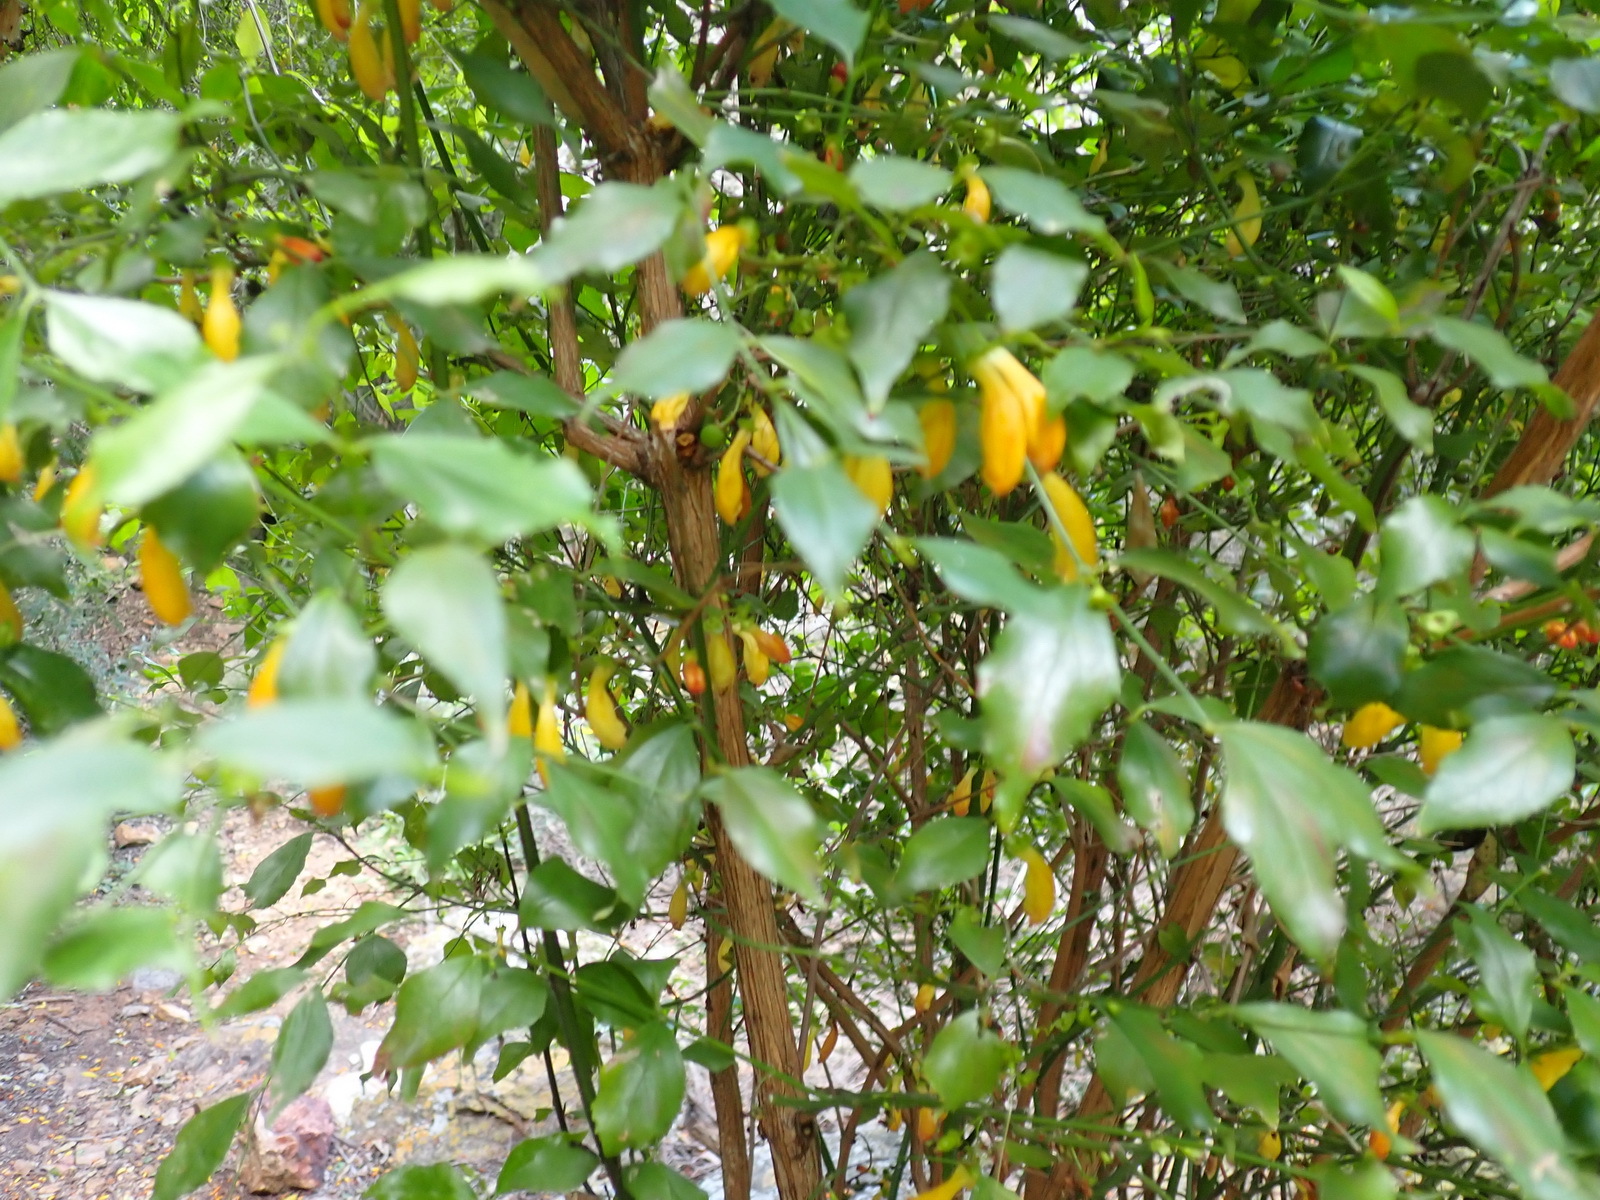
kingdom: Plantae
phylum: Tracheophyta
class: Magnoliopsida
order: Lamiales
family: Stilbaceae
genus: Halleria
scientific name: Halleria lucida
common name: Tree fuschia
